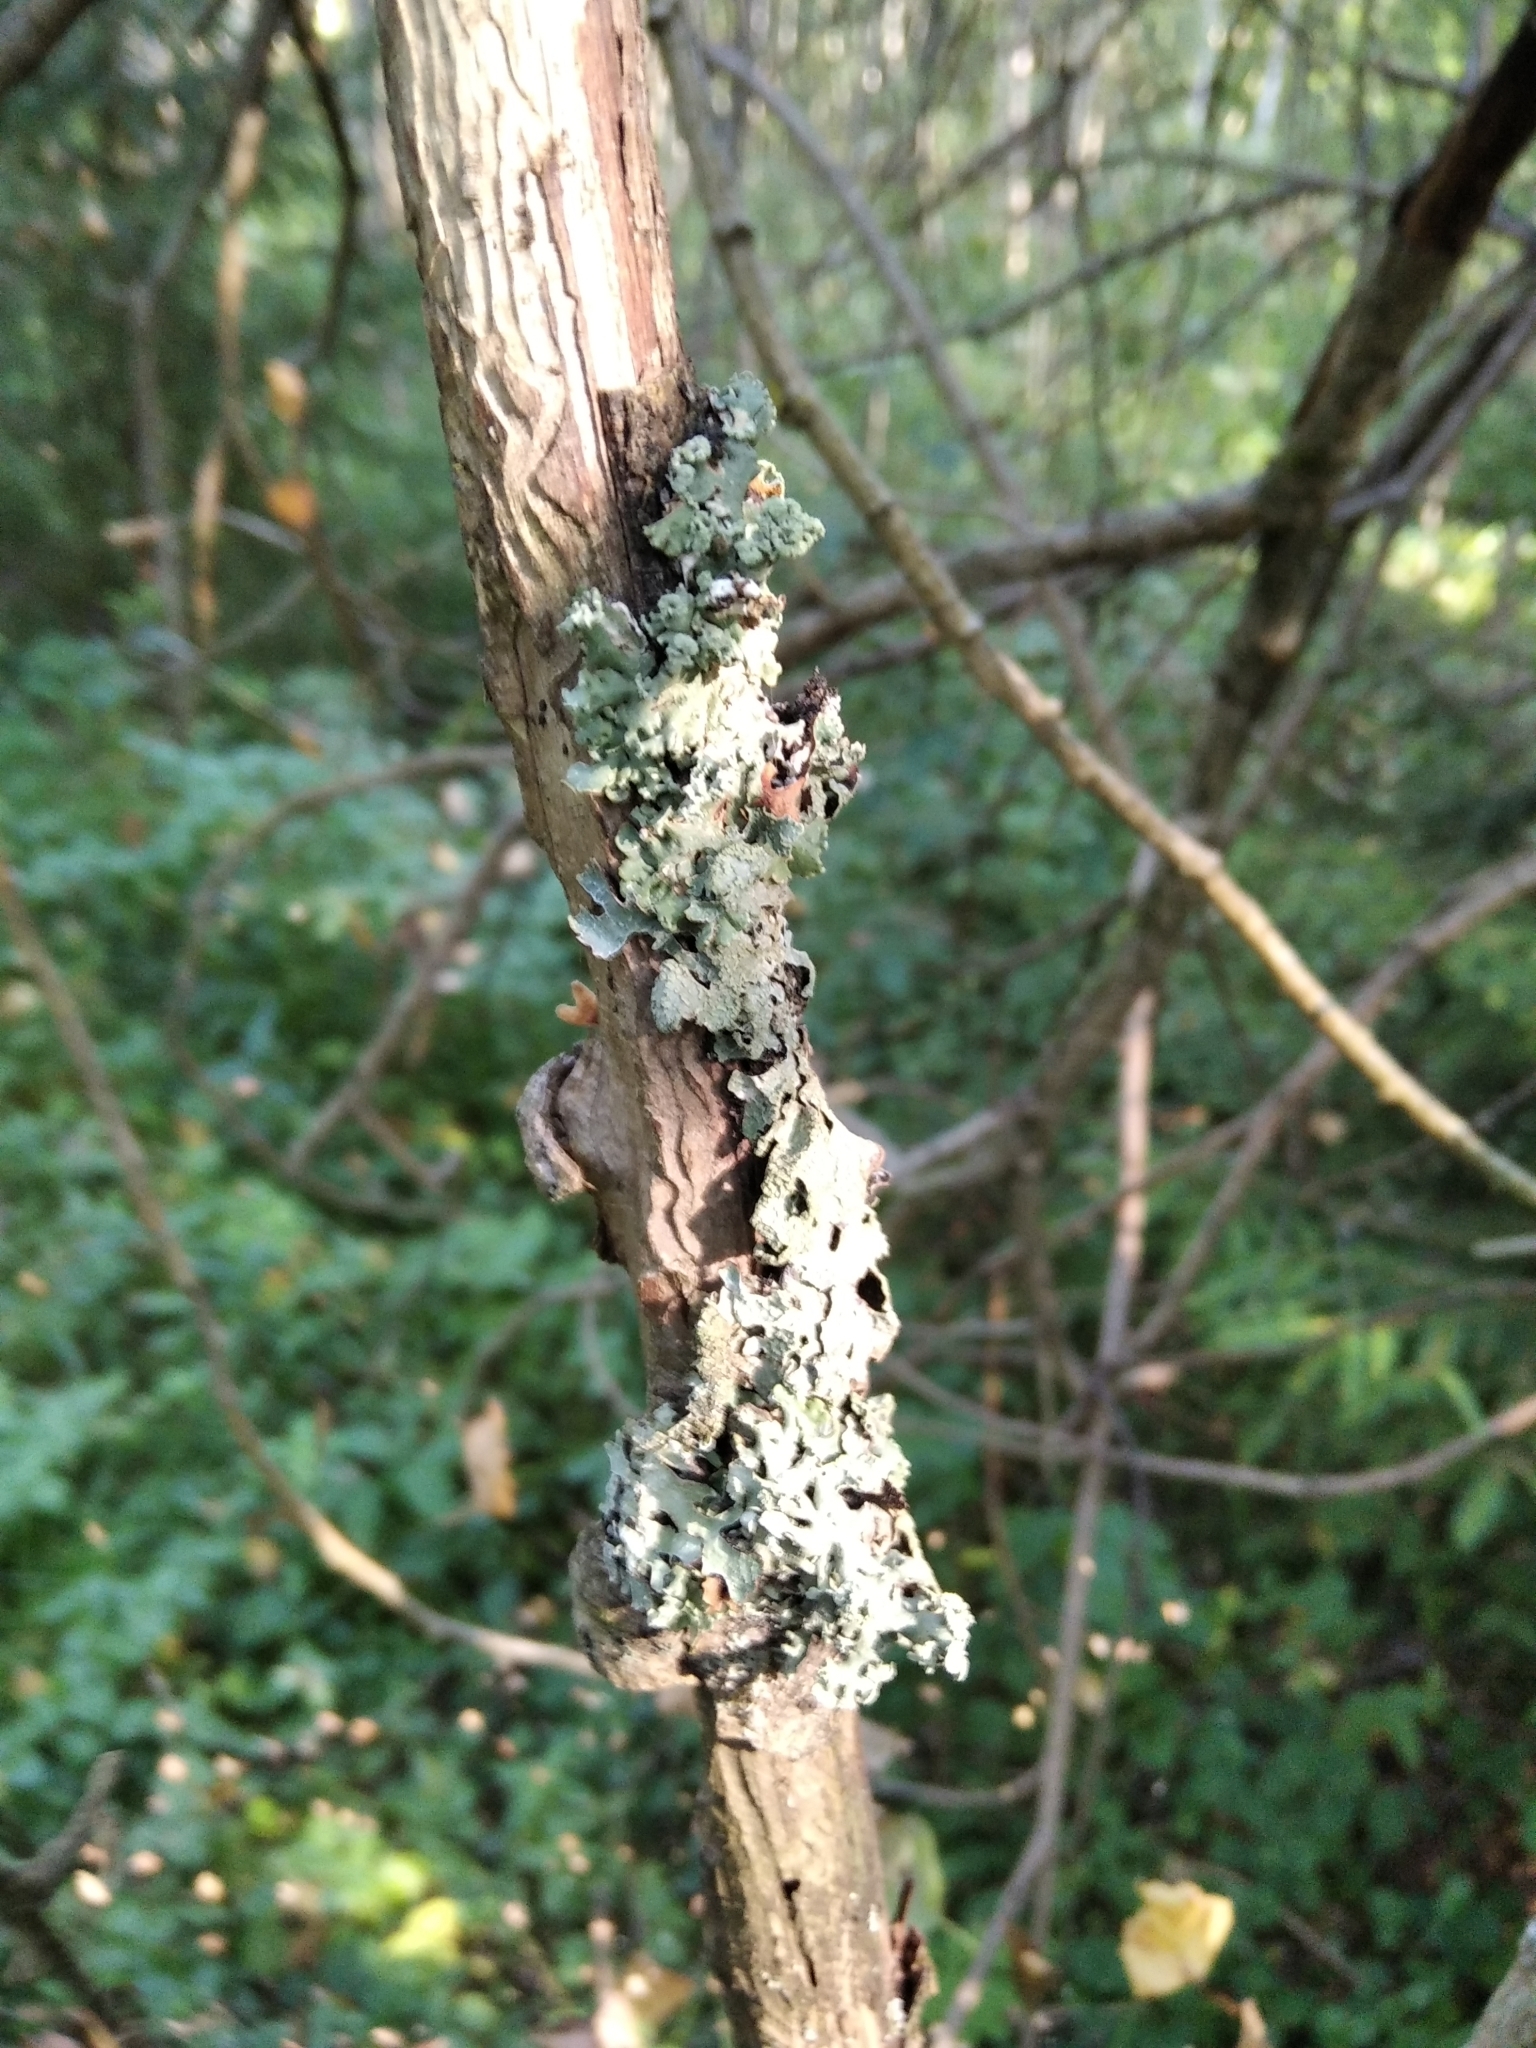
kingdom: Fungi
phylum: Ascomycota
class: Lecanoromycetes
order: Lecanorales
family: Parmeliaceae
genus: Parmelia
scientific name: Parmelia sulcata
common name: Netted shield lichen
